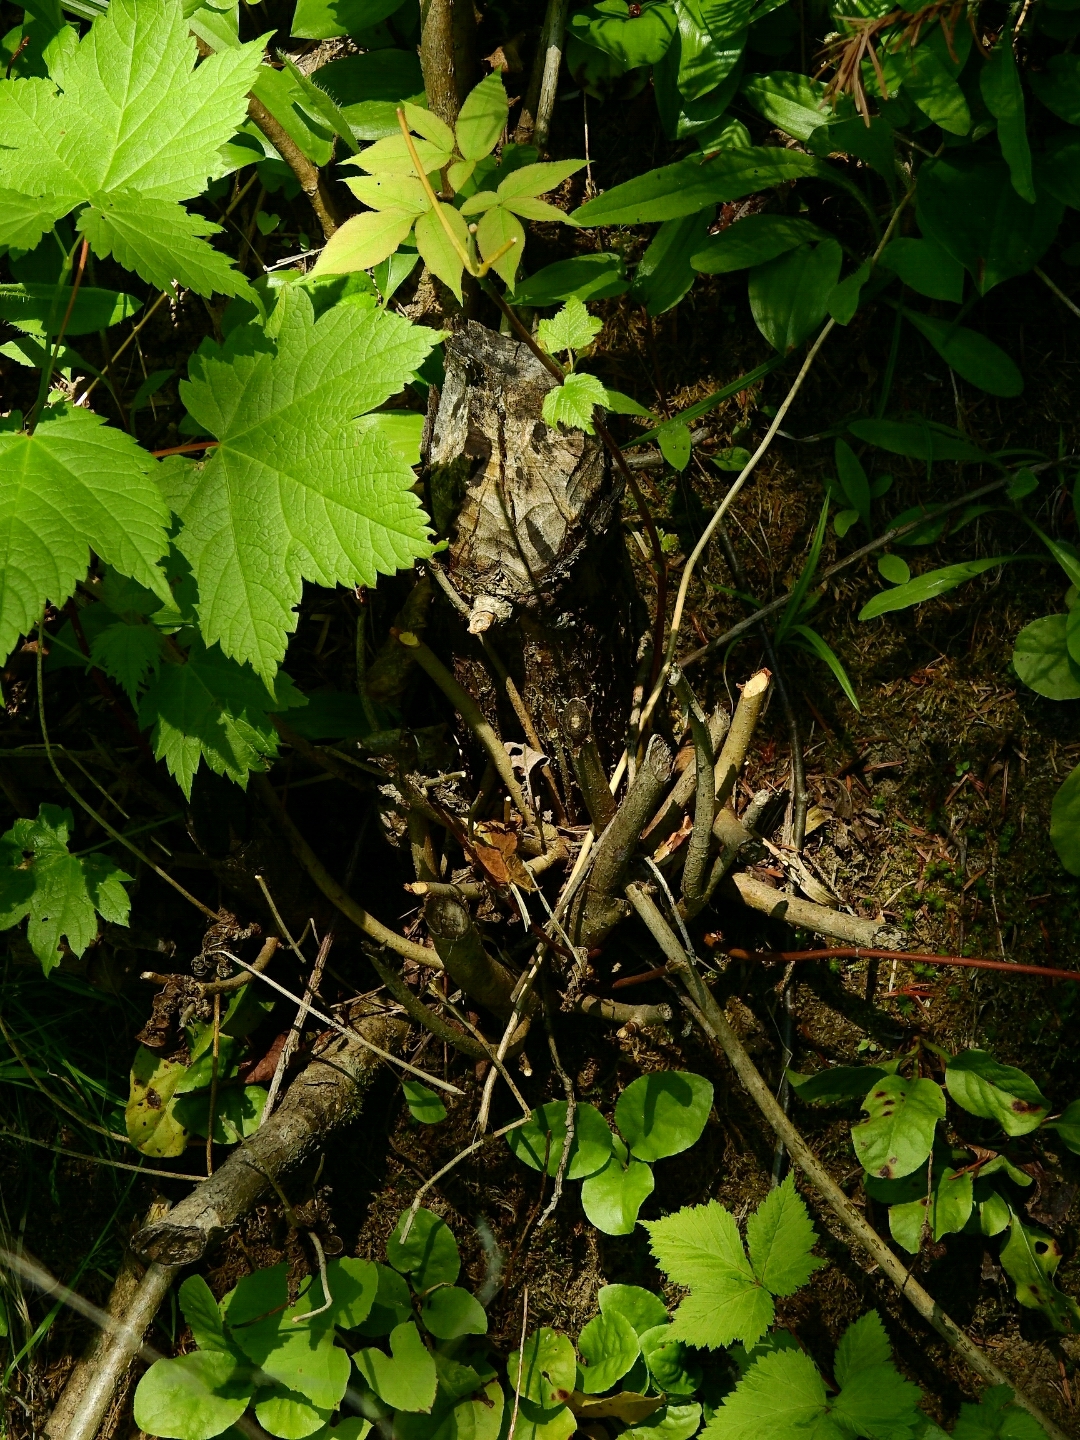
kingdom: Animalia
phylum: Chordata
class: Mammalia
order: Rodentia
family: Castoridae
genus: Castor
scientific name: Castor canadensis
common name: American beaver
